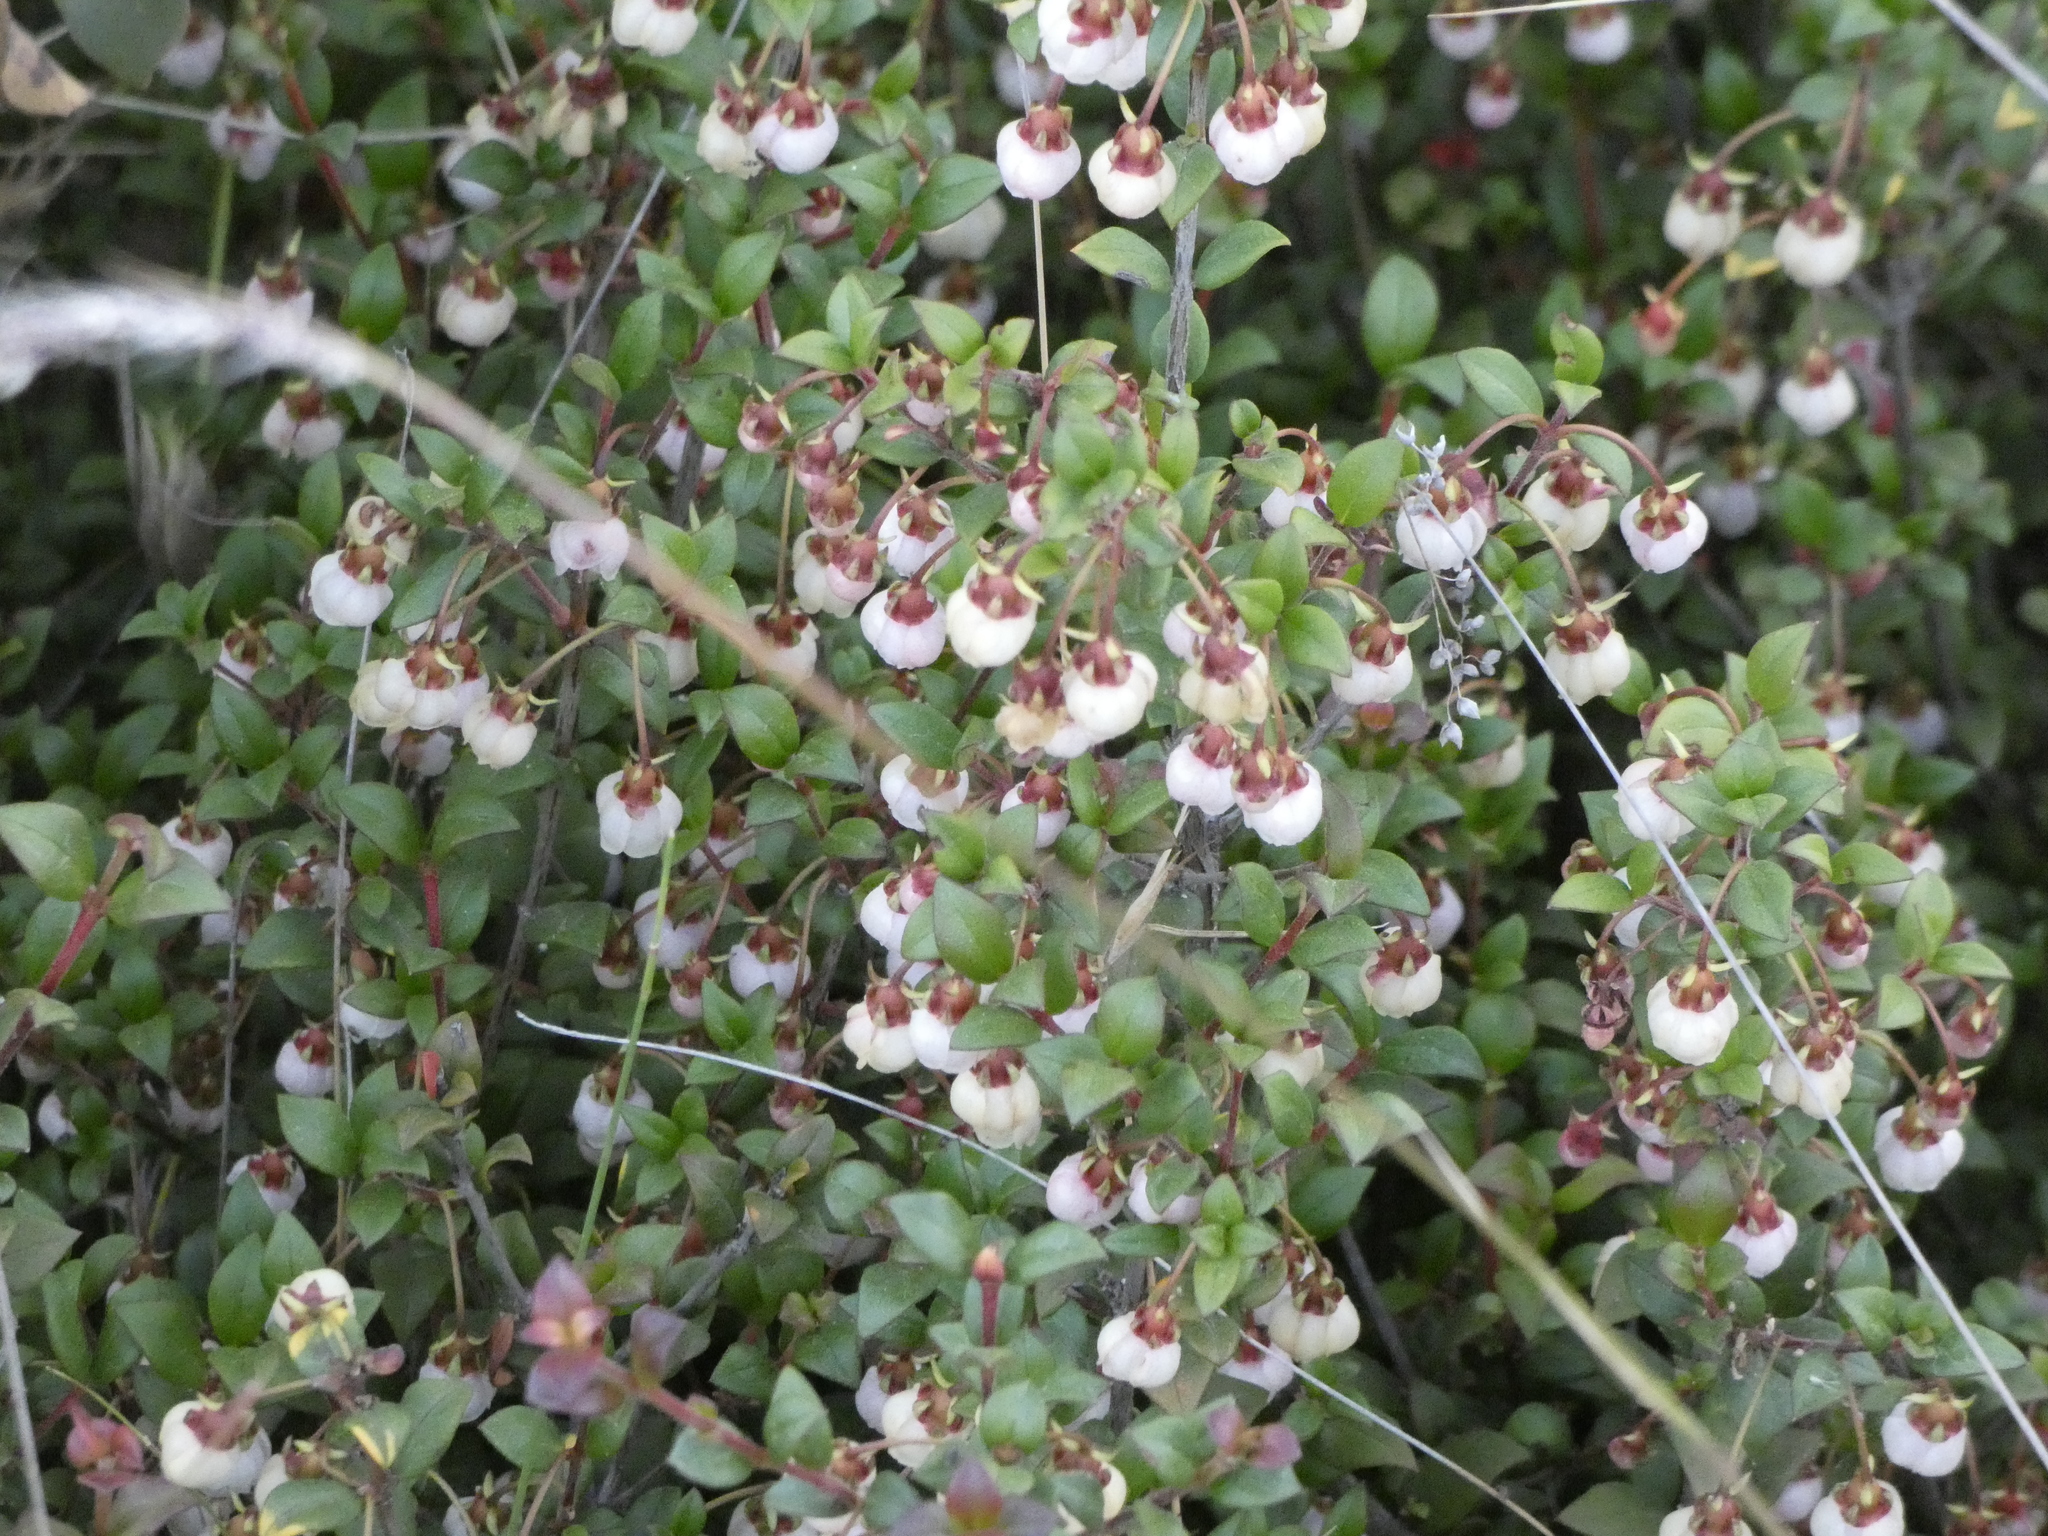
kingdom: Plantae
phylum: Tracheophyta
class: Magnoliopsida
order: Myrtales
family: Myrtaceae
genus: Ugni
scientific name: Ugni molinae
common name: Chilean-guava
